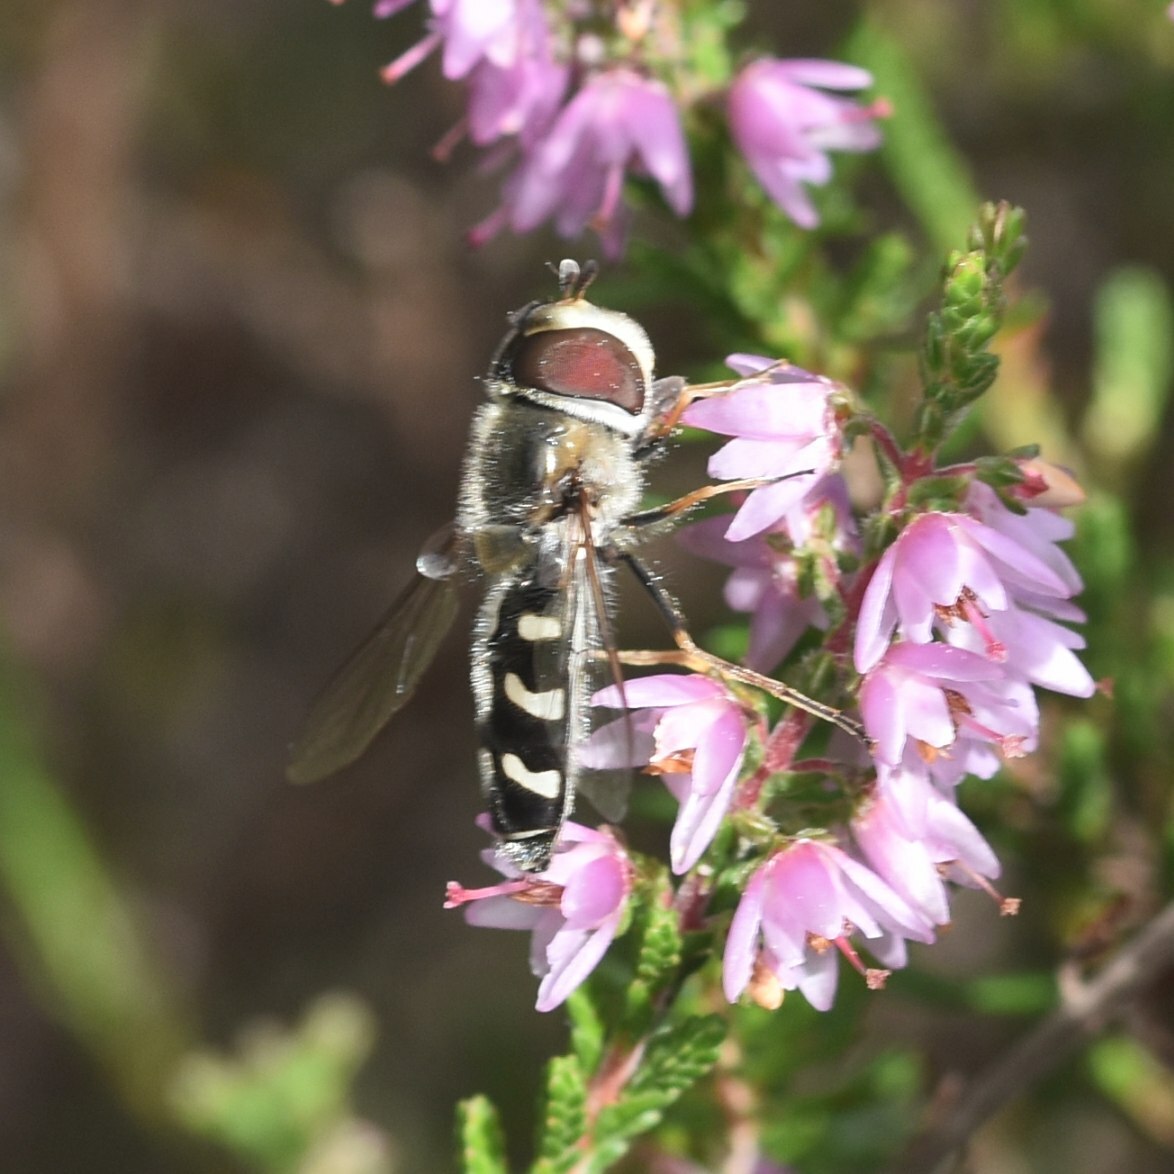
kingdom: Animalia
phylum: Arthropoda
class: Insecta
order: Diptera
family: Syrphidae
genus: Scaeva
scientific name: Scaeva pyrastri
